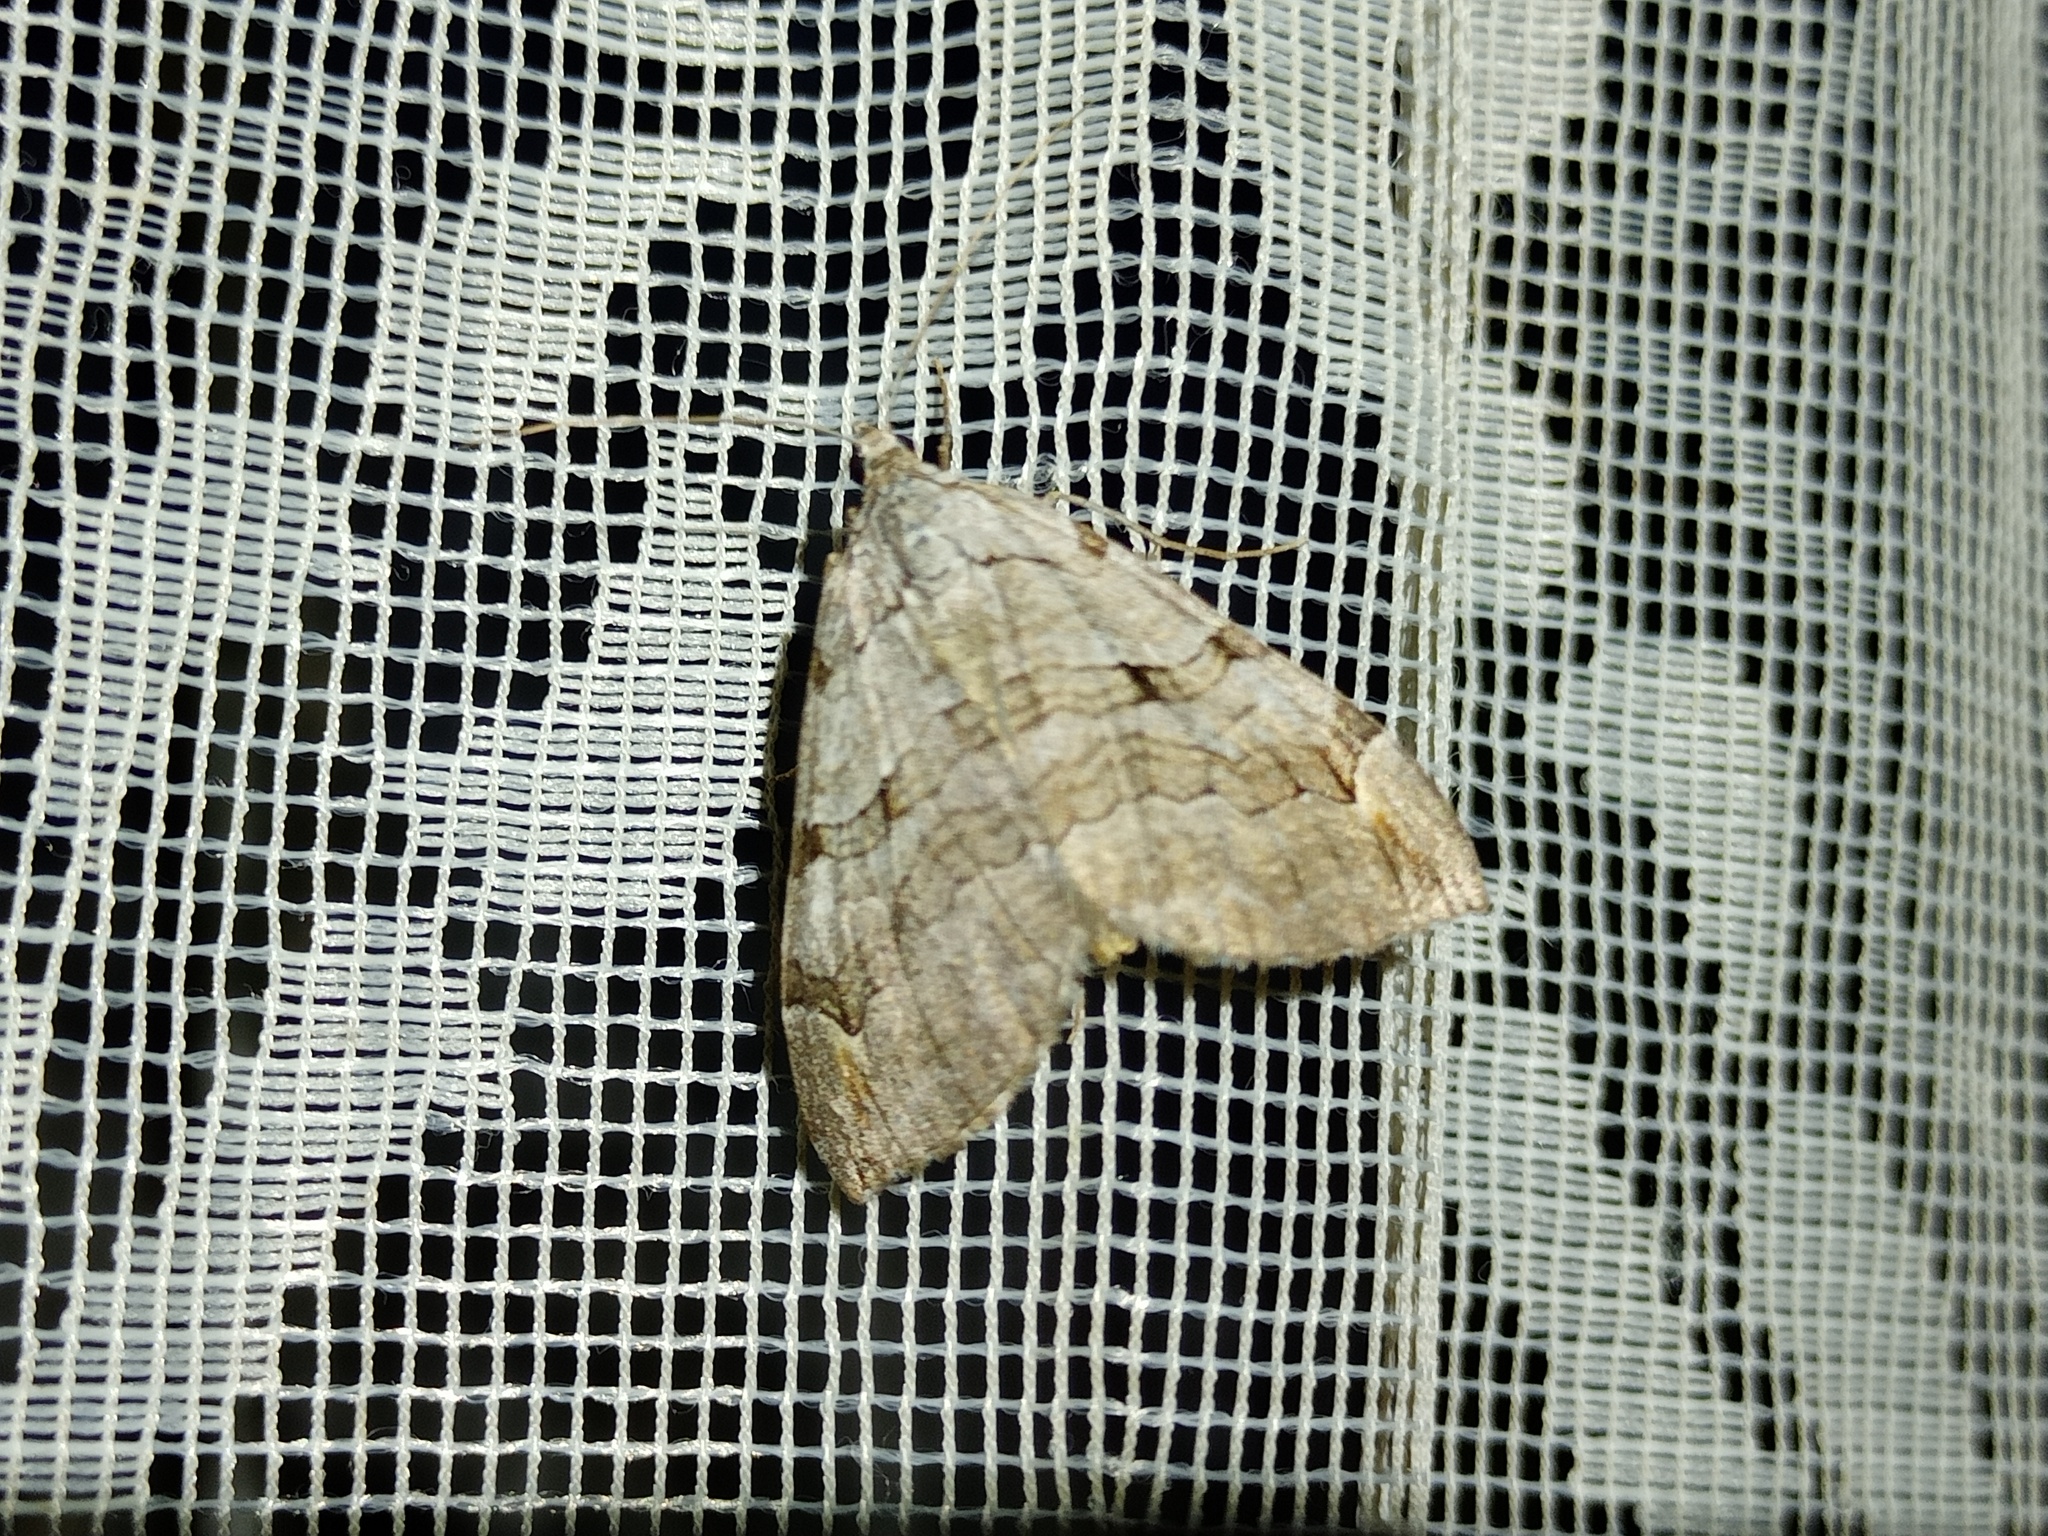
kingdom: Animalia
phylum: Arthropoda
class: Insecta
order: Lepidoptera
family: Geometridae
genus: Aplocera
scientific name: Aplocera plagiata
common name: Treble-bar
